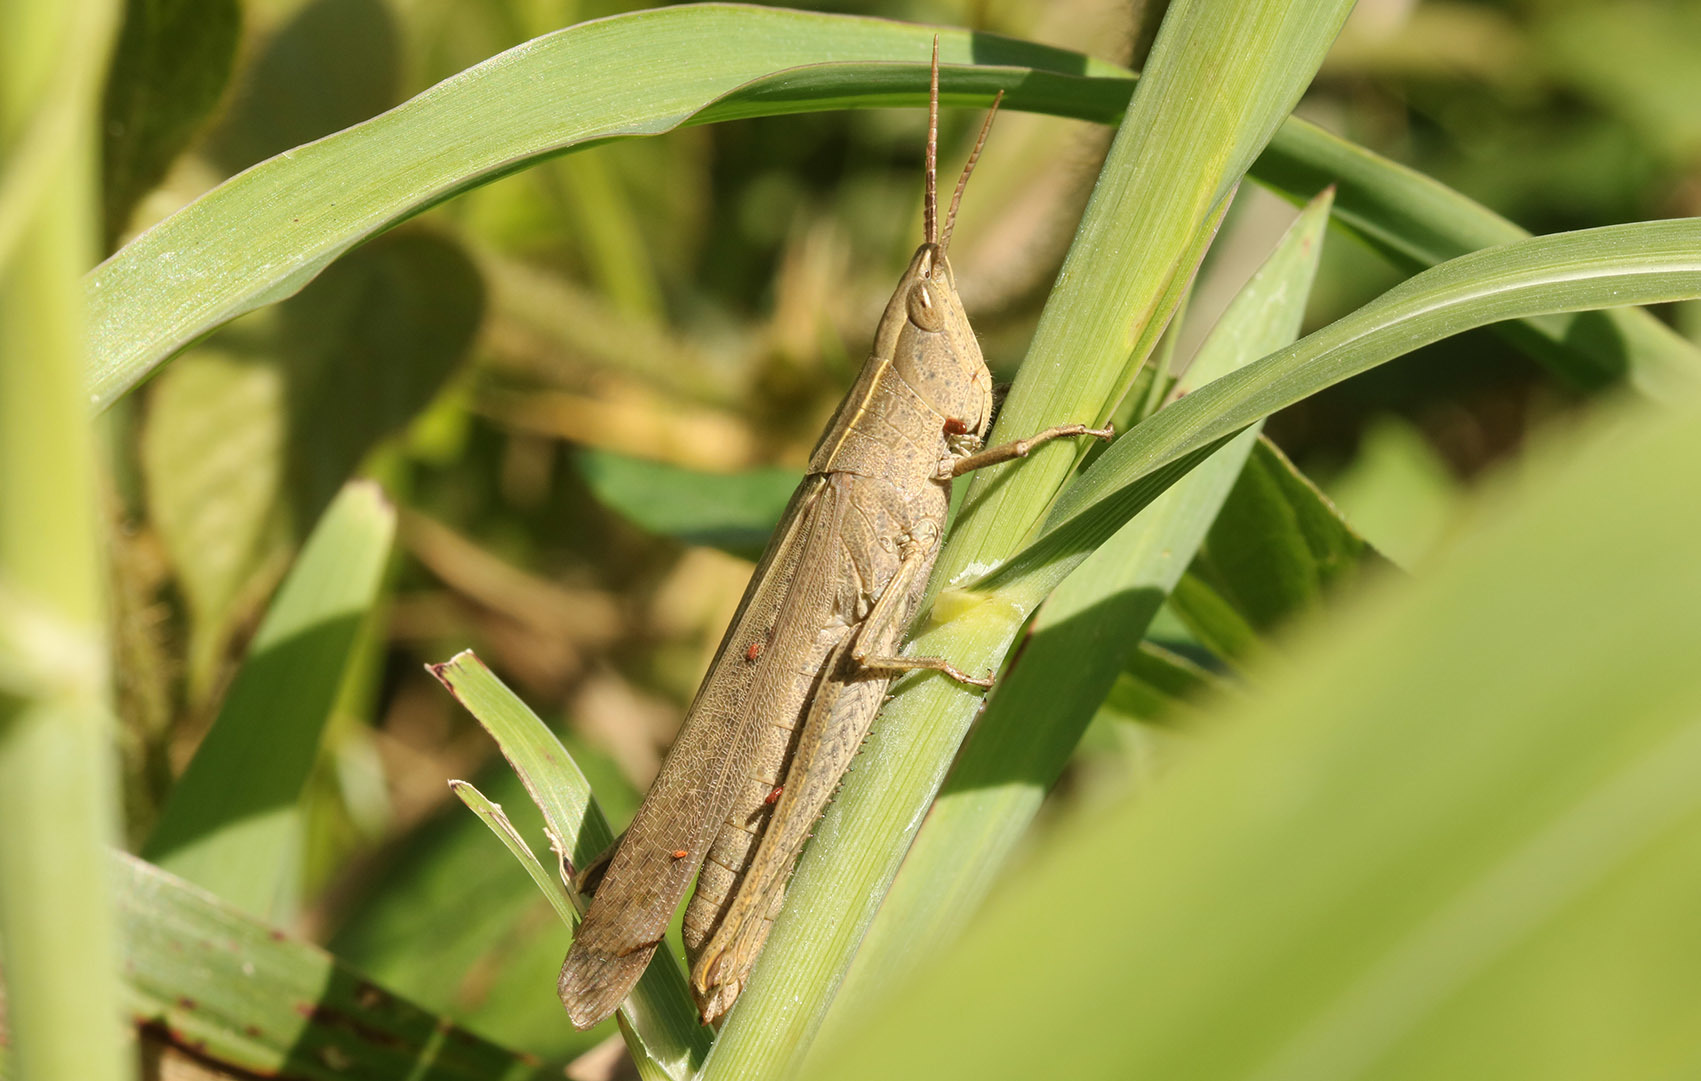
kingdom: Animalia
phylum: Arthropoda
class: Insecta
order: Orthoptera
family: Acrididae
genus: Metaleptea
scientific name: Metaleptea adspersa
